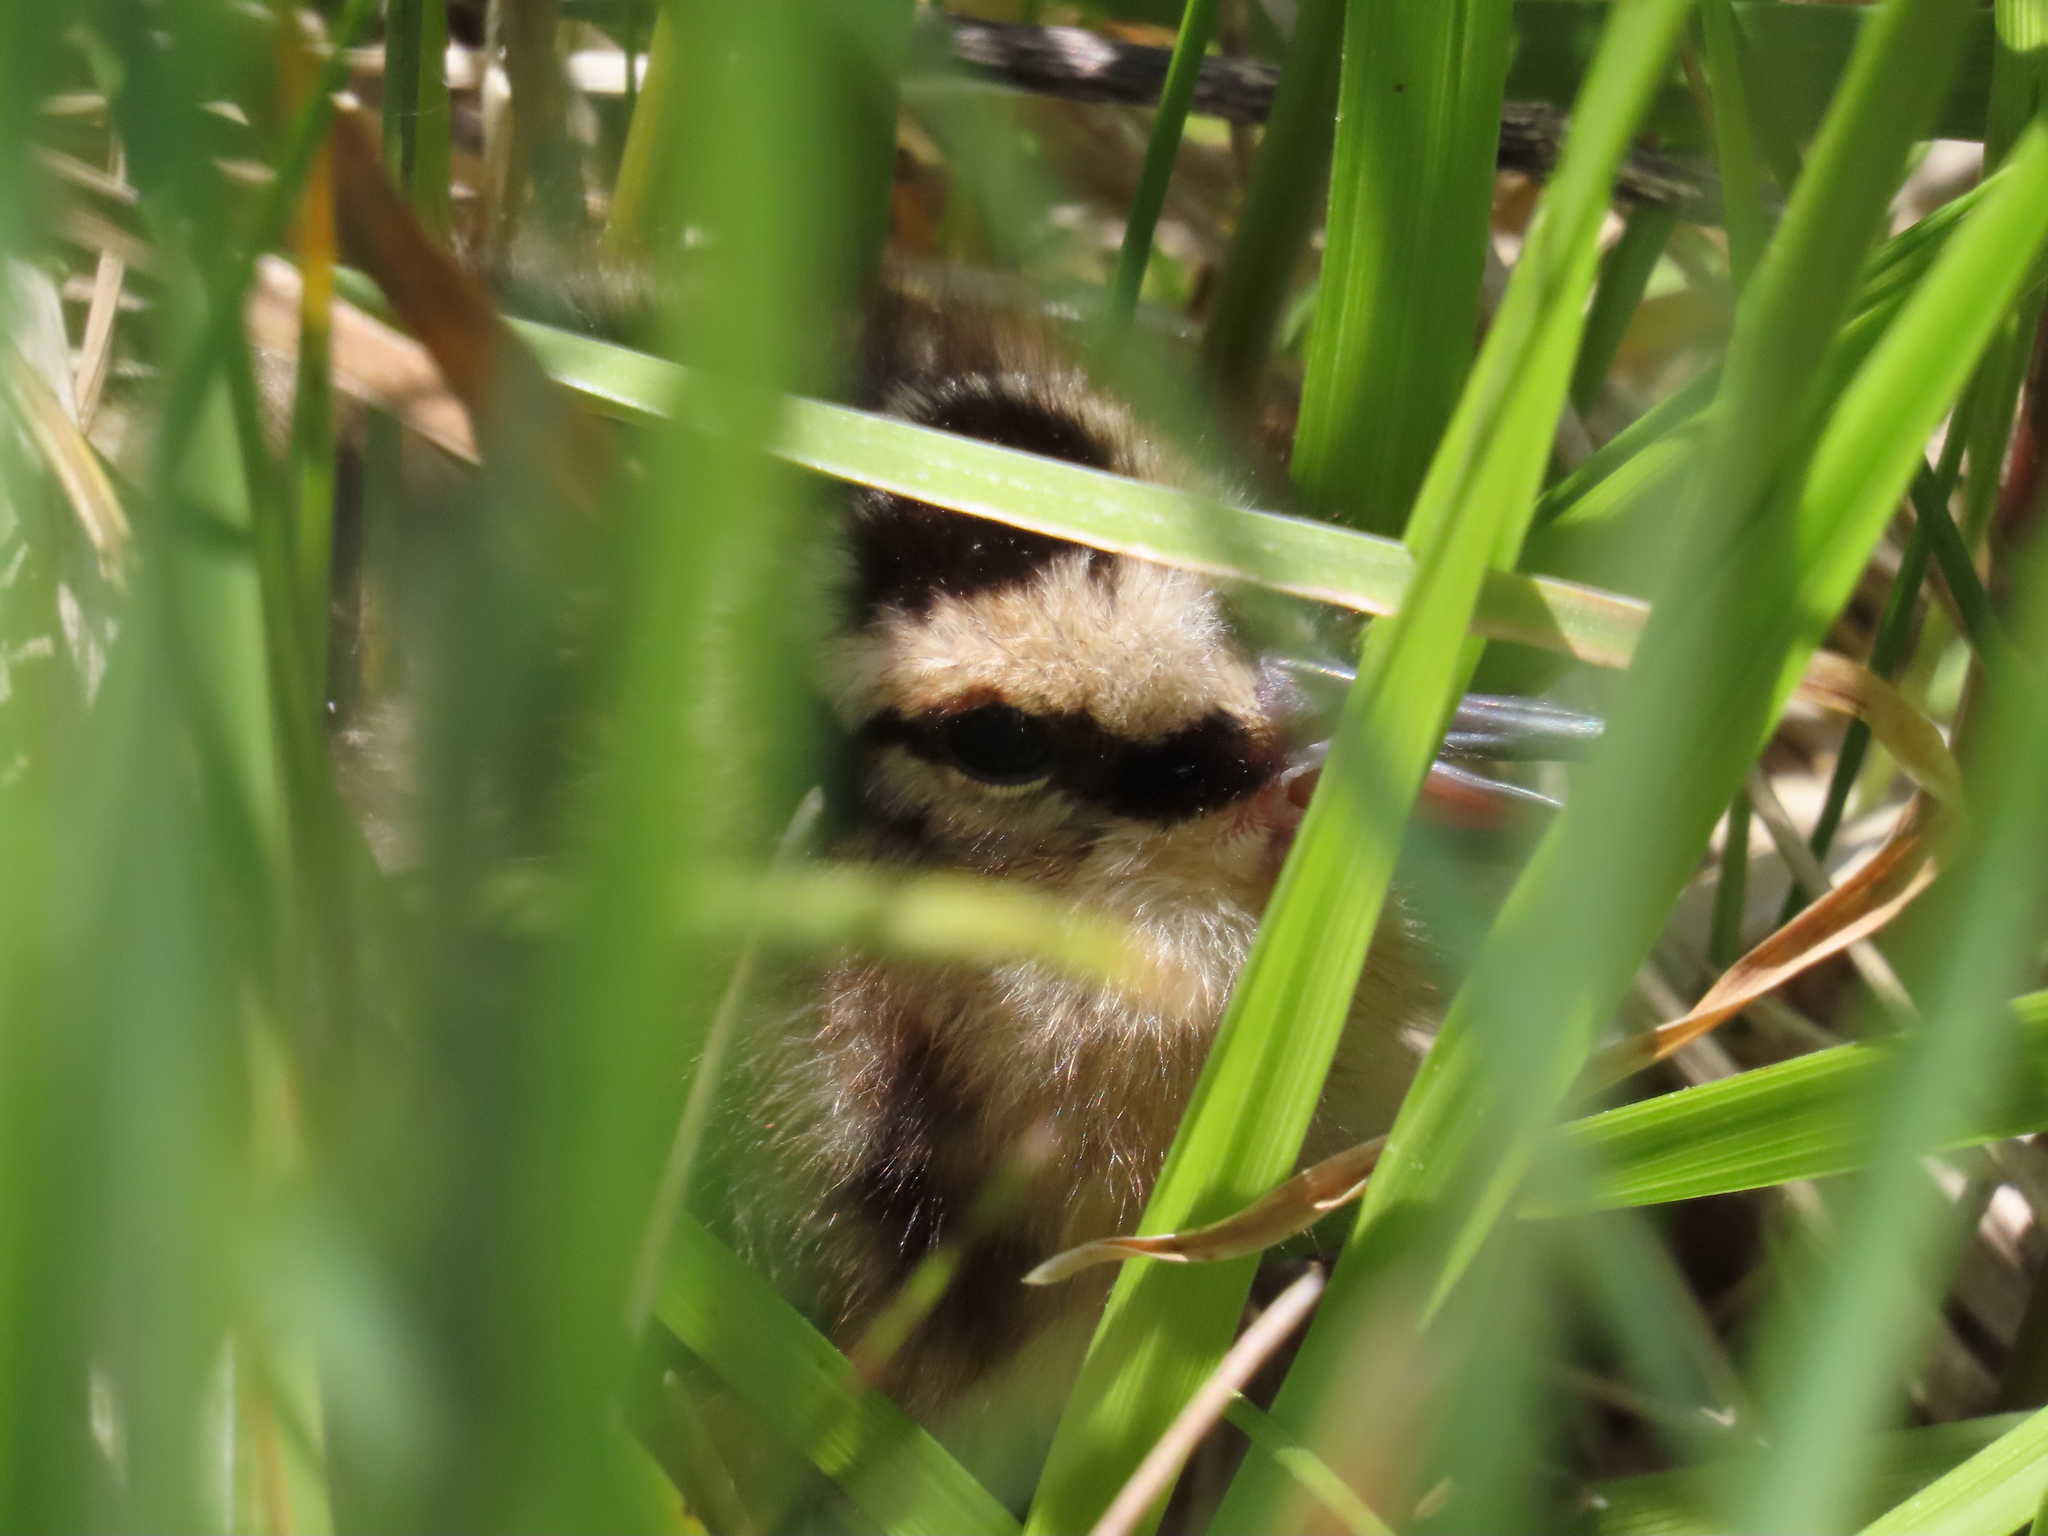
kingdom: Animalia
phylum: Chordata
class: Aves
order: Charadriiformes
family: Scolopacidae
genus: Scolopax
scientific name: Scolopax minor
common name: American woodcock
